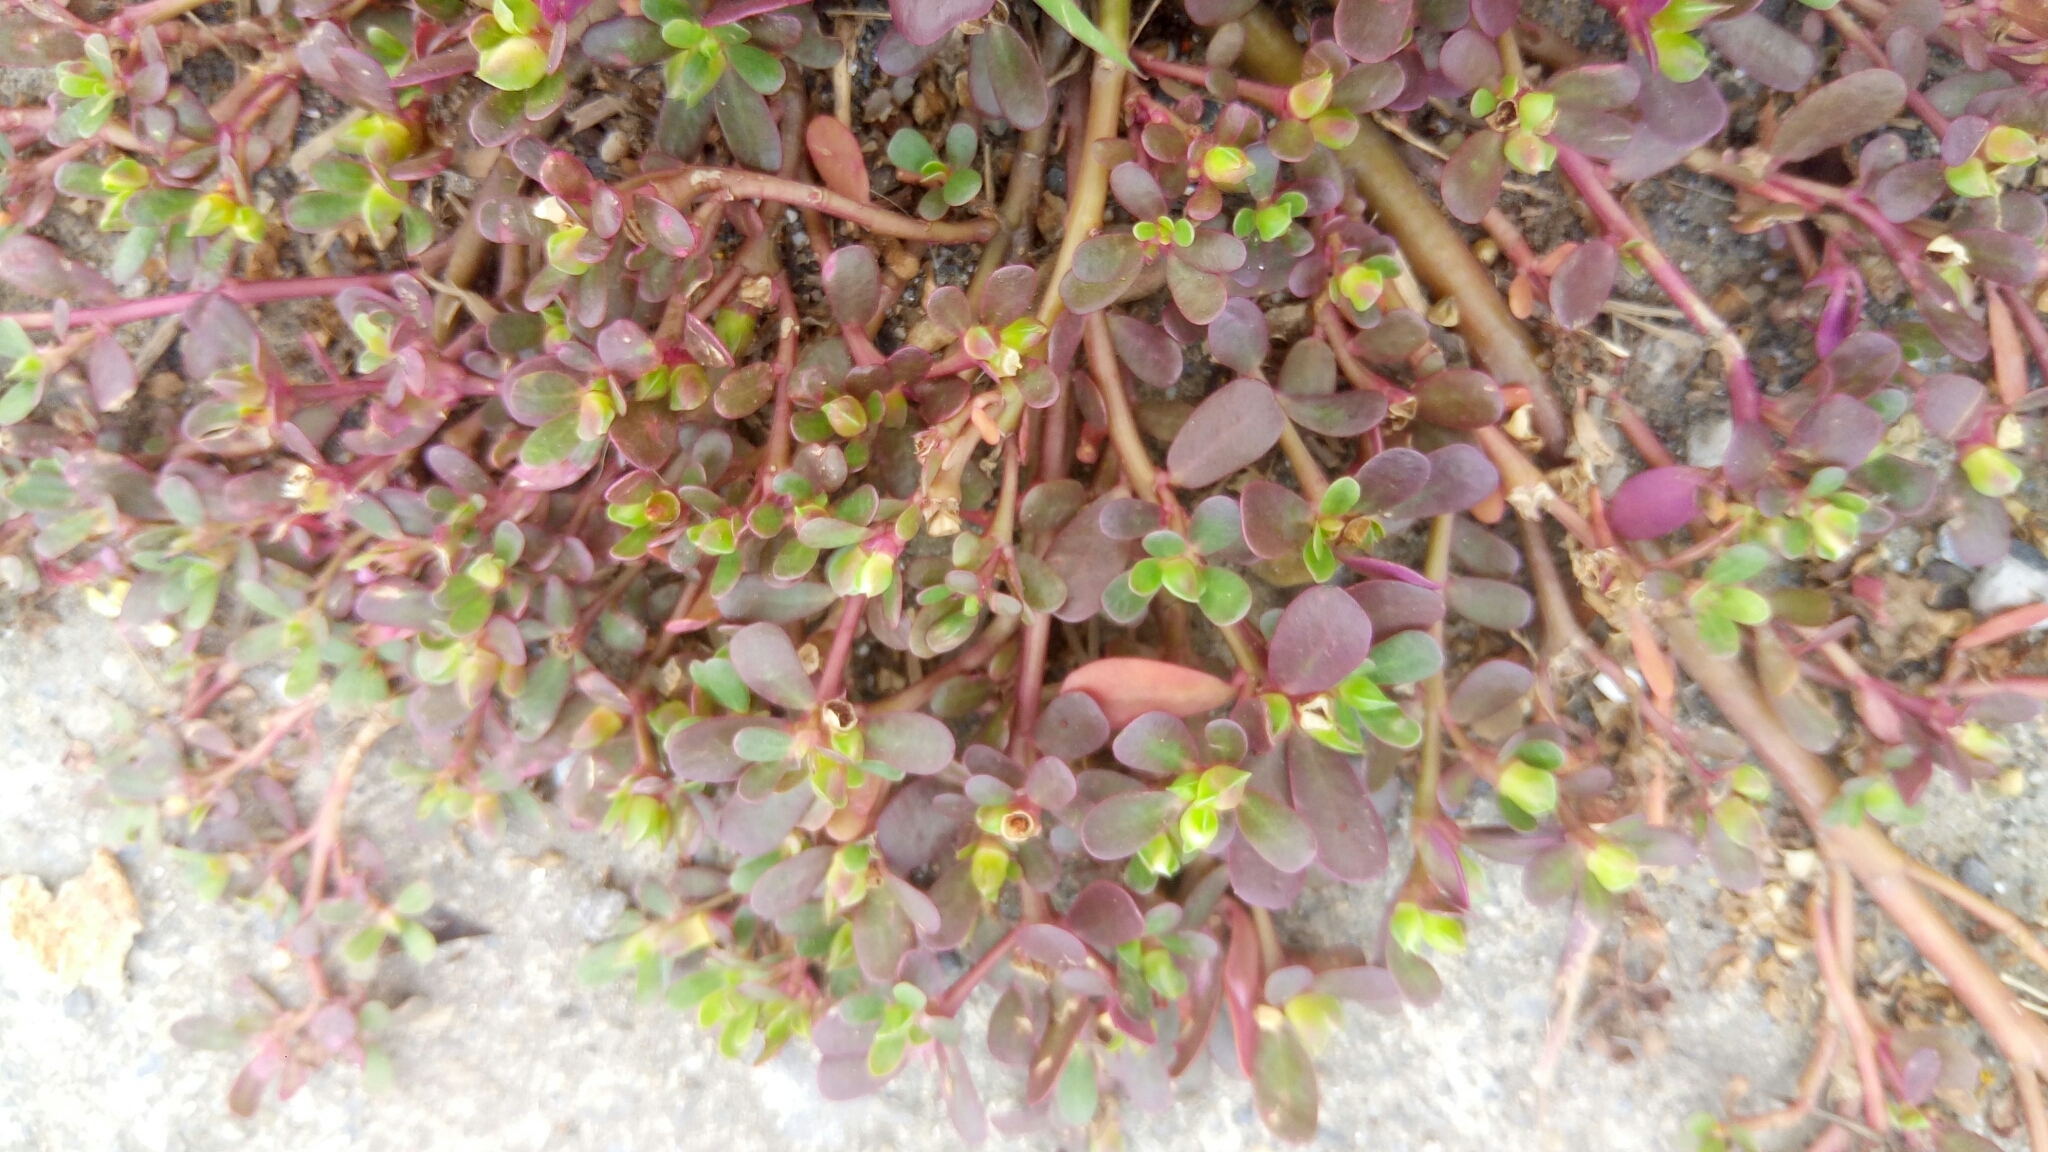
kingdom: Plantae
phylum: Tracheophyta
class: Magnoliopsida
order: Caryophyllales
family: Portulacaceae
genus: Portulaca
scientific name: Portulaca oleracea
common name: Common purslane
